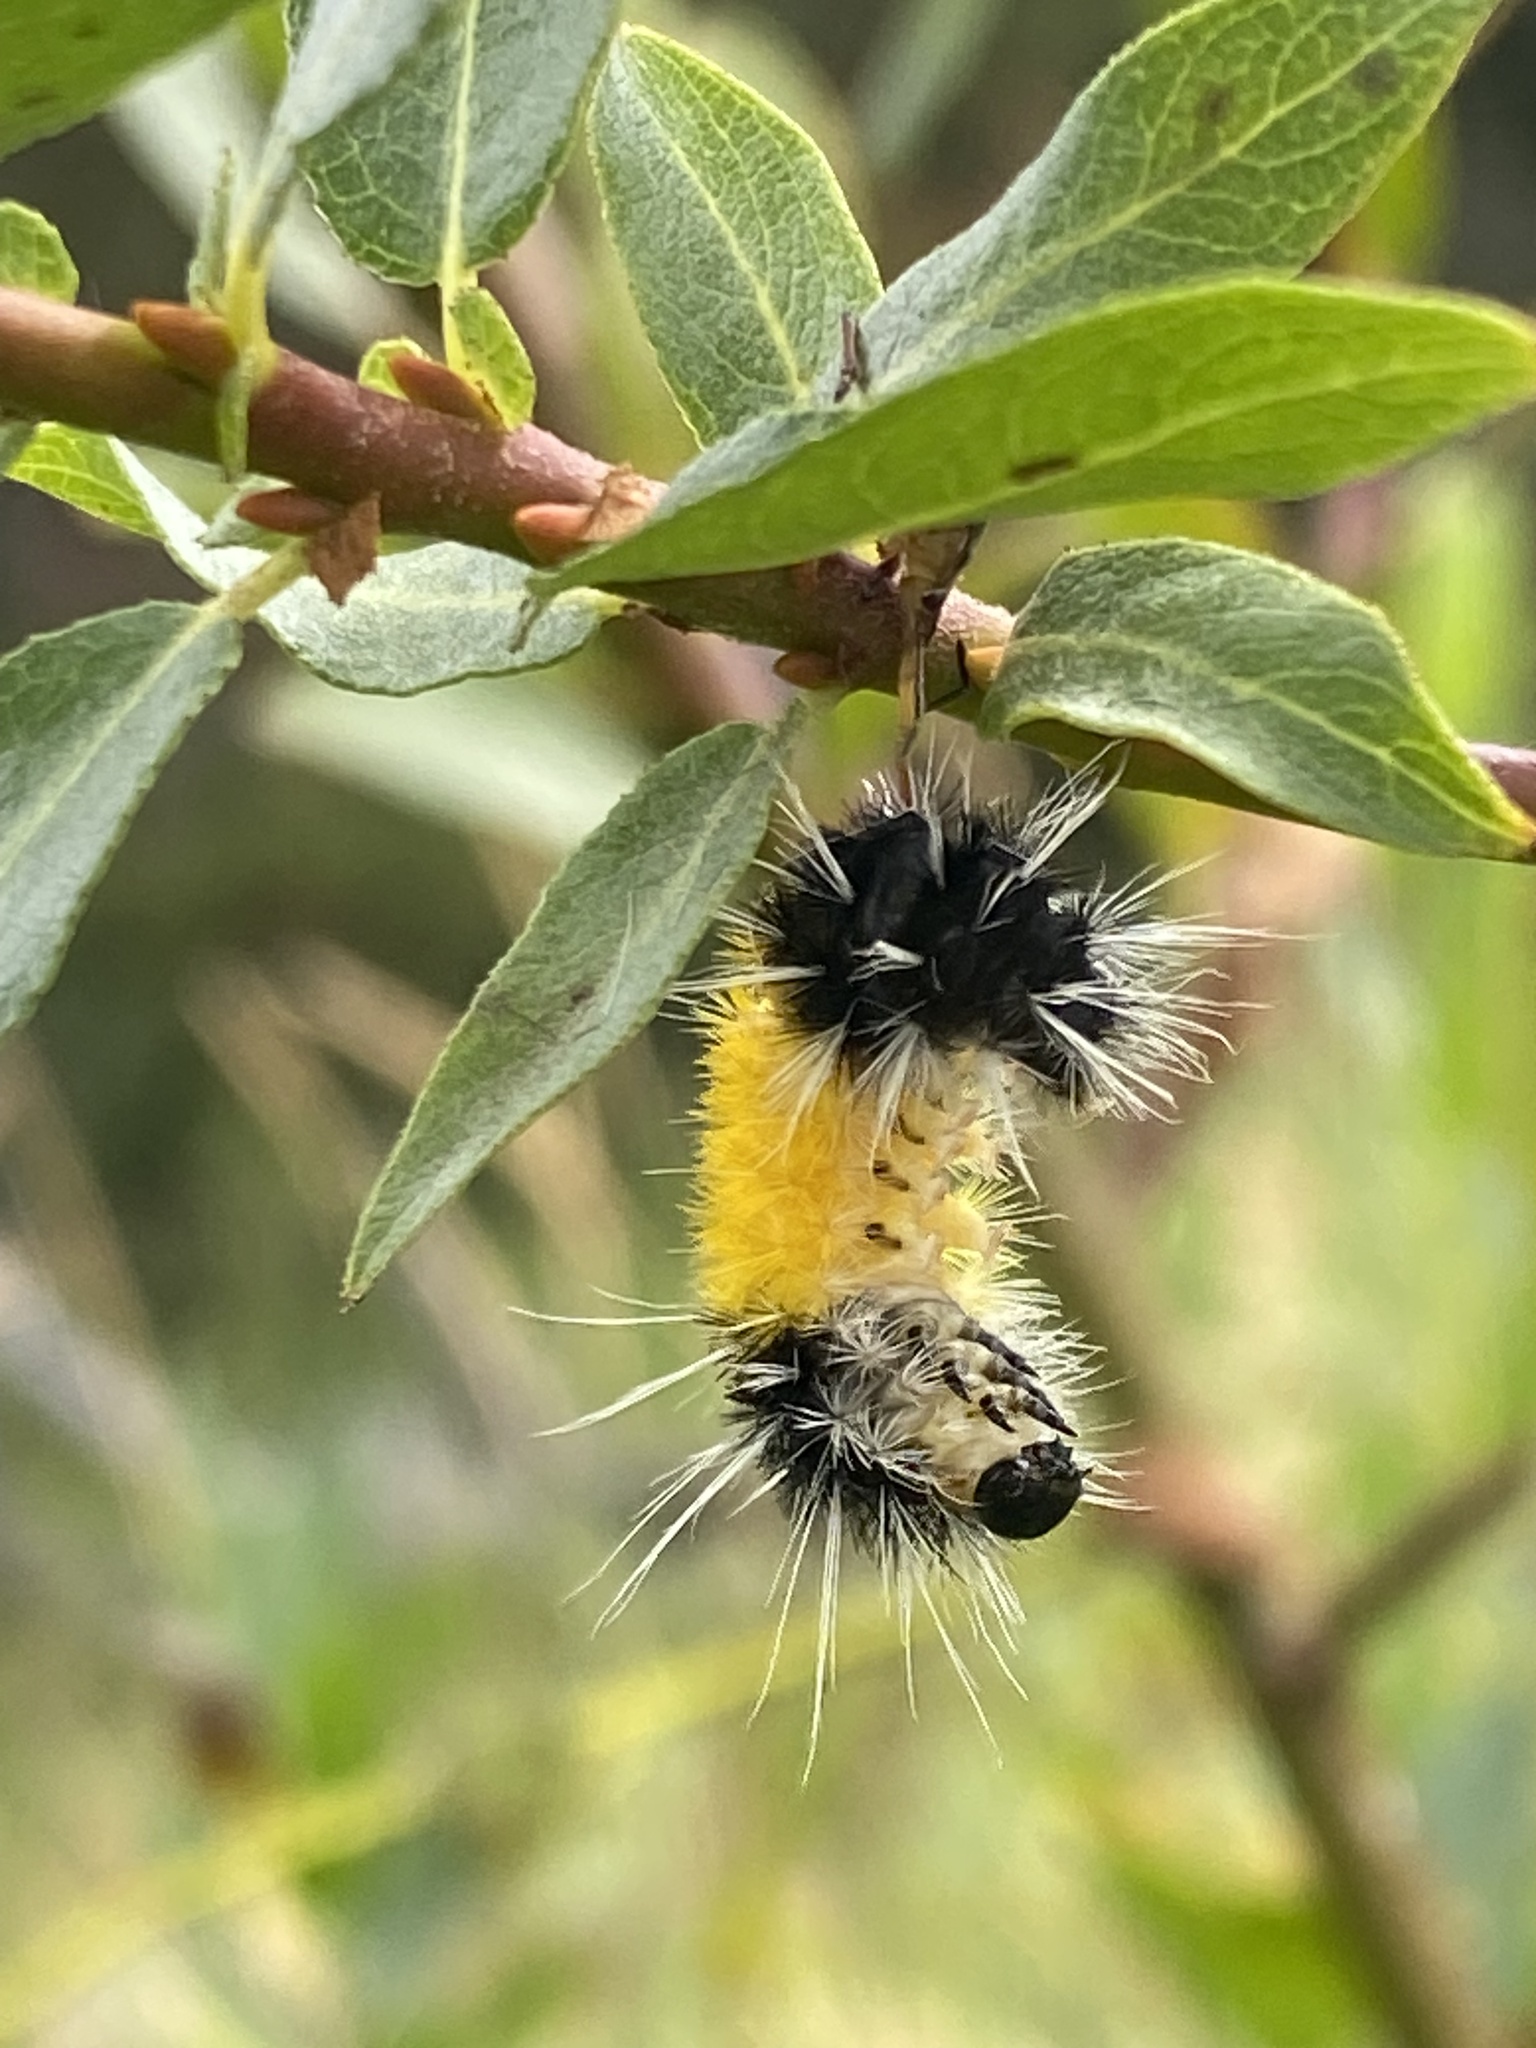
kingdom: Animalia
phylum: Arthropoda
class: Insecta
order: Lepidoptera
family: Erebidae
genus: Lophocampa
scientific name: Lophocampa maculata
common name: Spotted tussock moth
